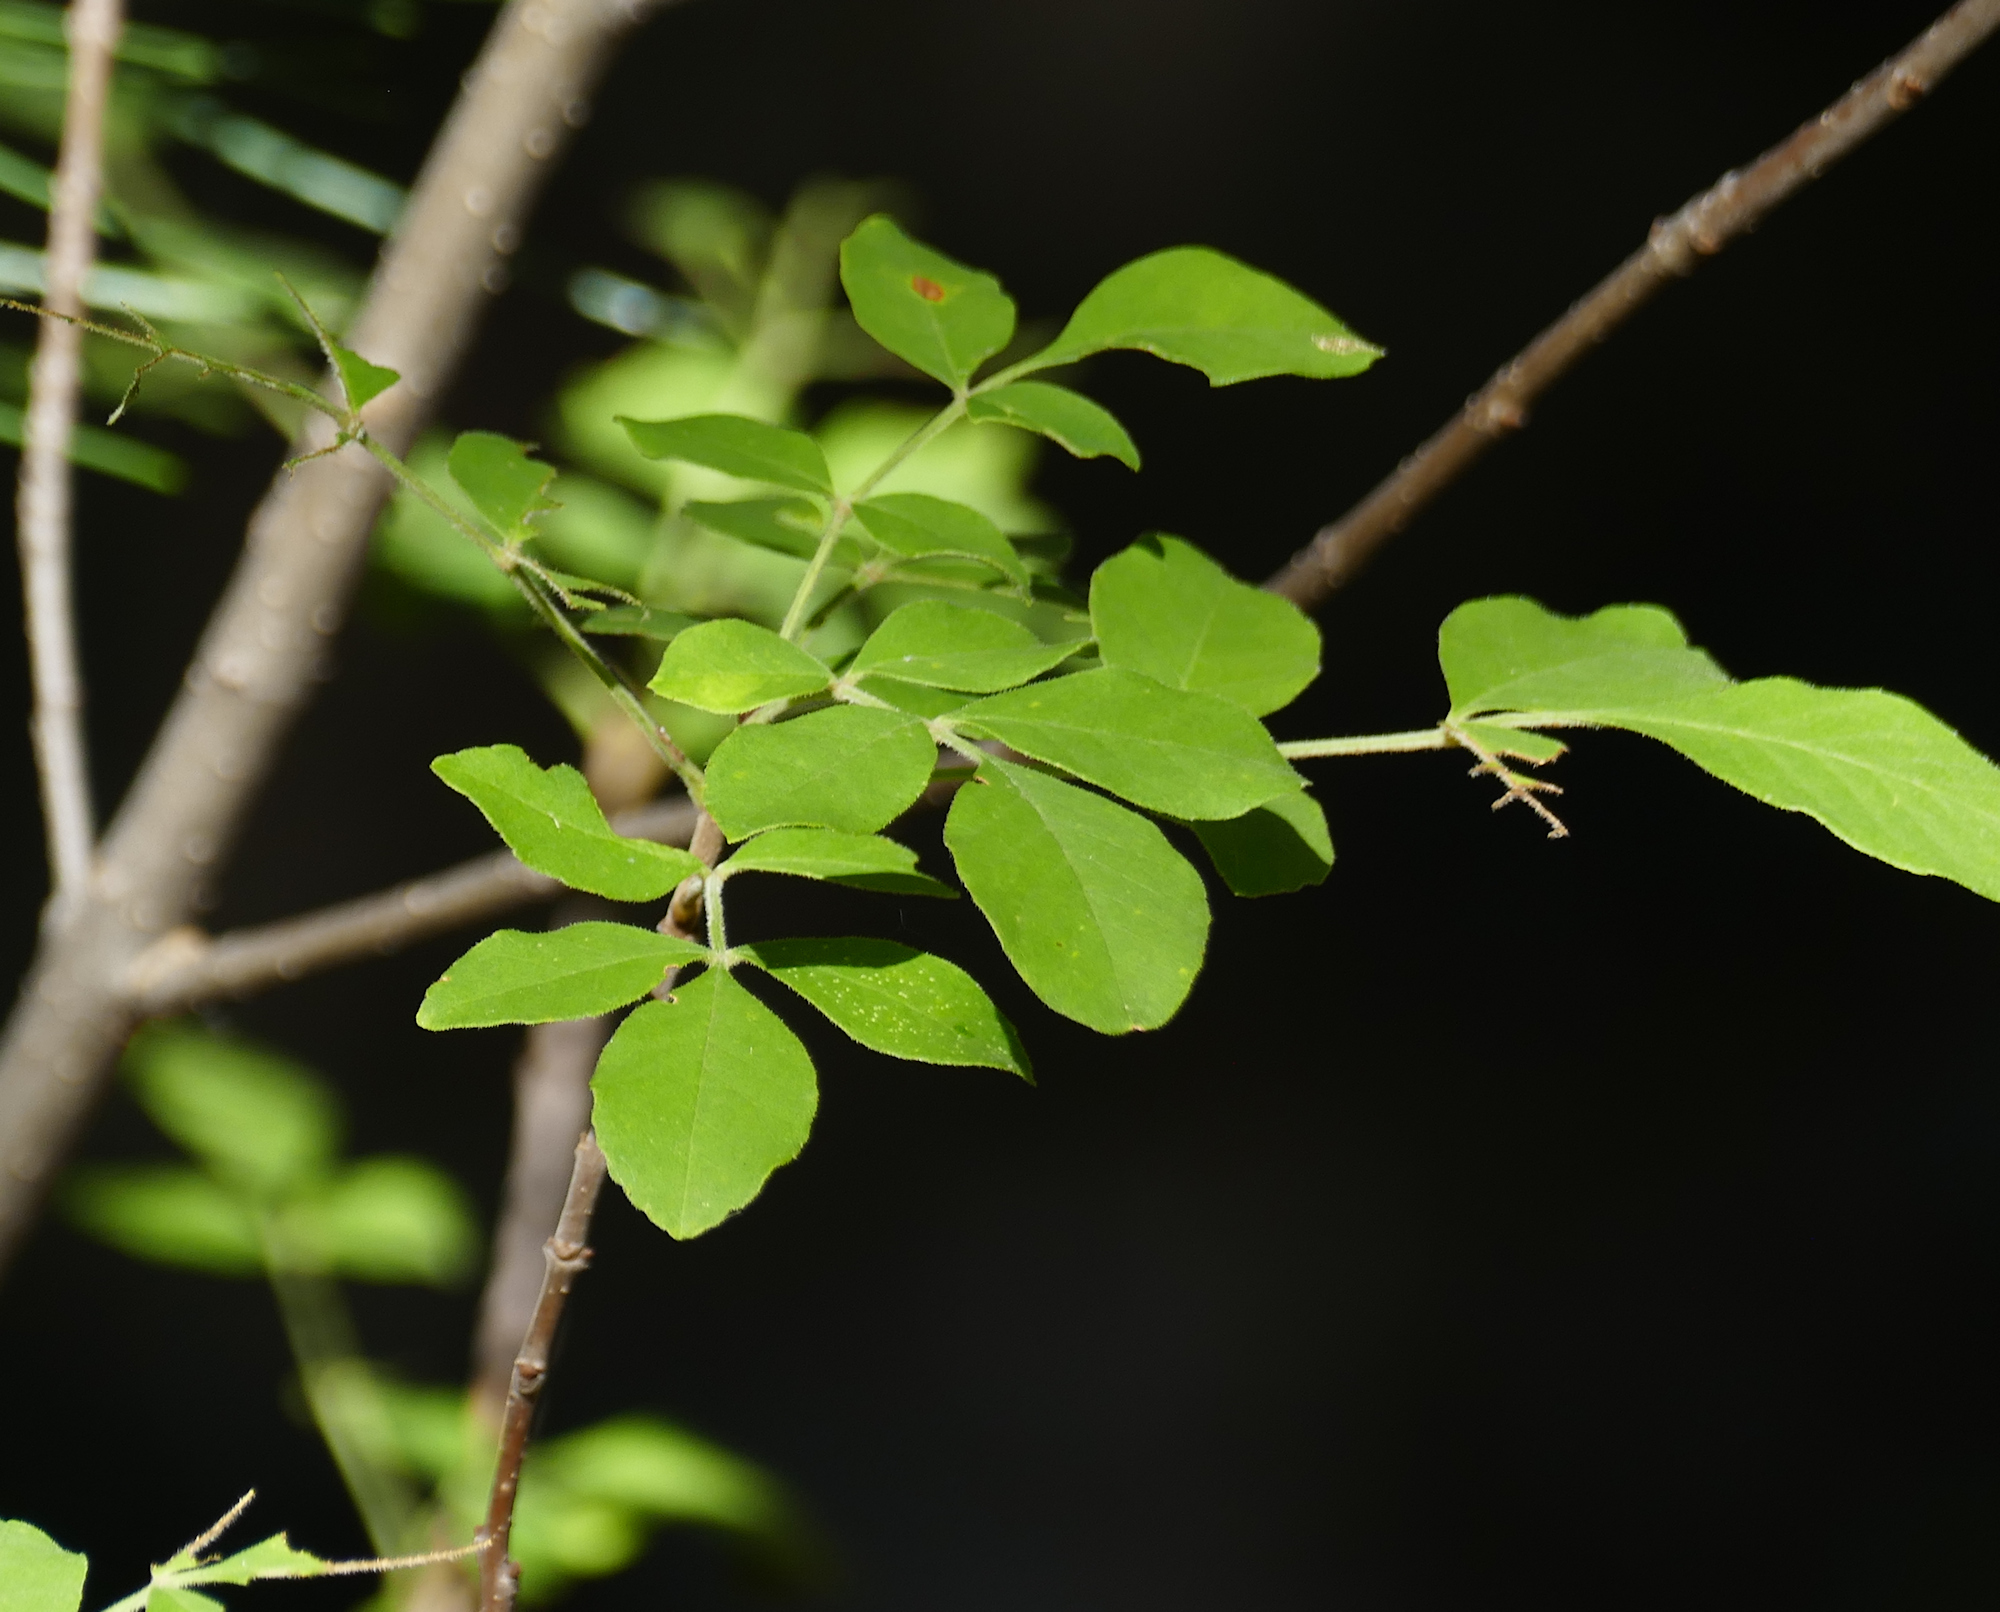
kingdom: Plantae
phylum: Tracheophyta
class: Magnoliopsida
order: Lamiales
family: Oleaceae
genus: Fraxinus
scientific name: Fraxinus velutina
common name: Arizon ash
